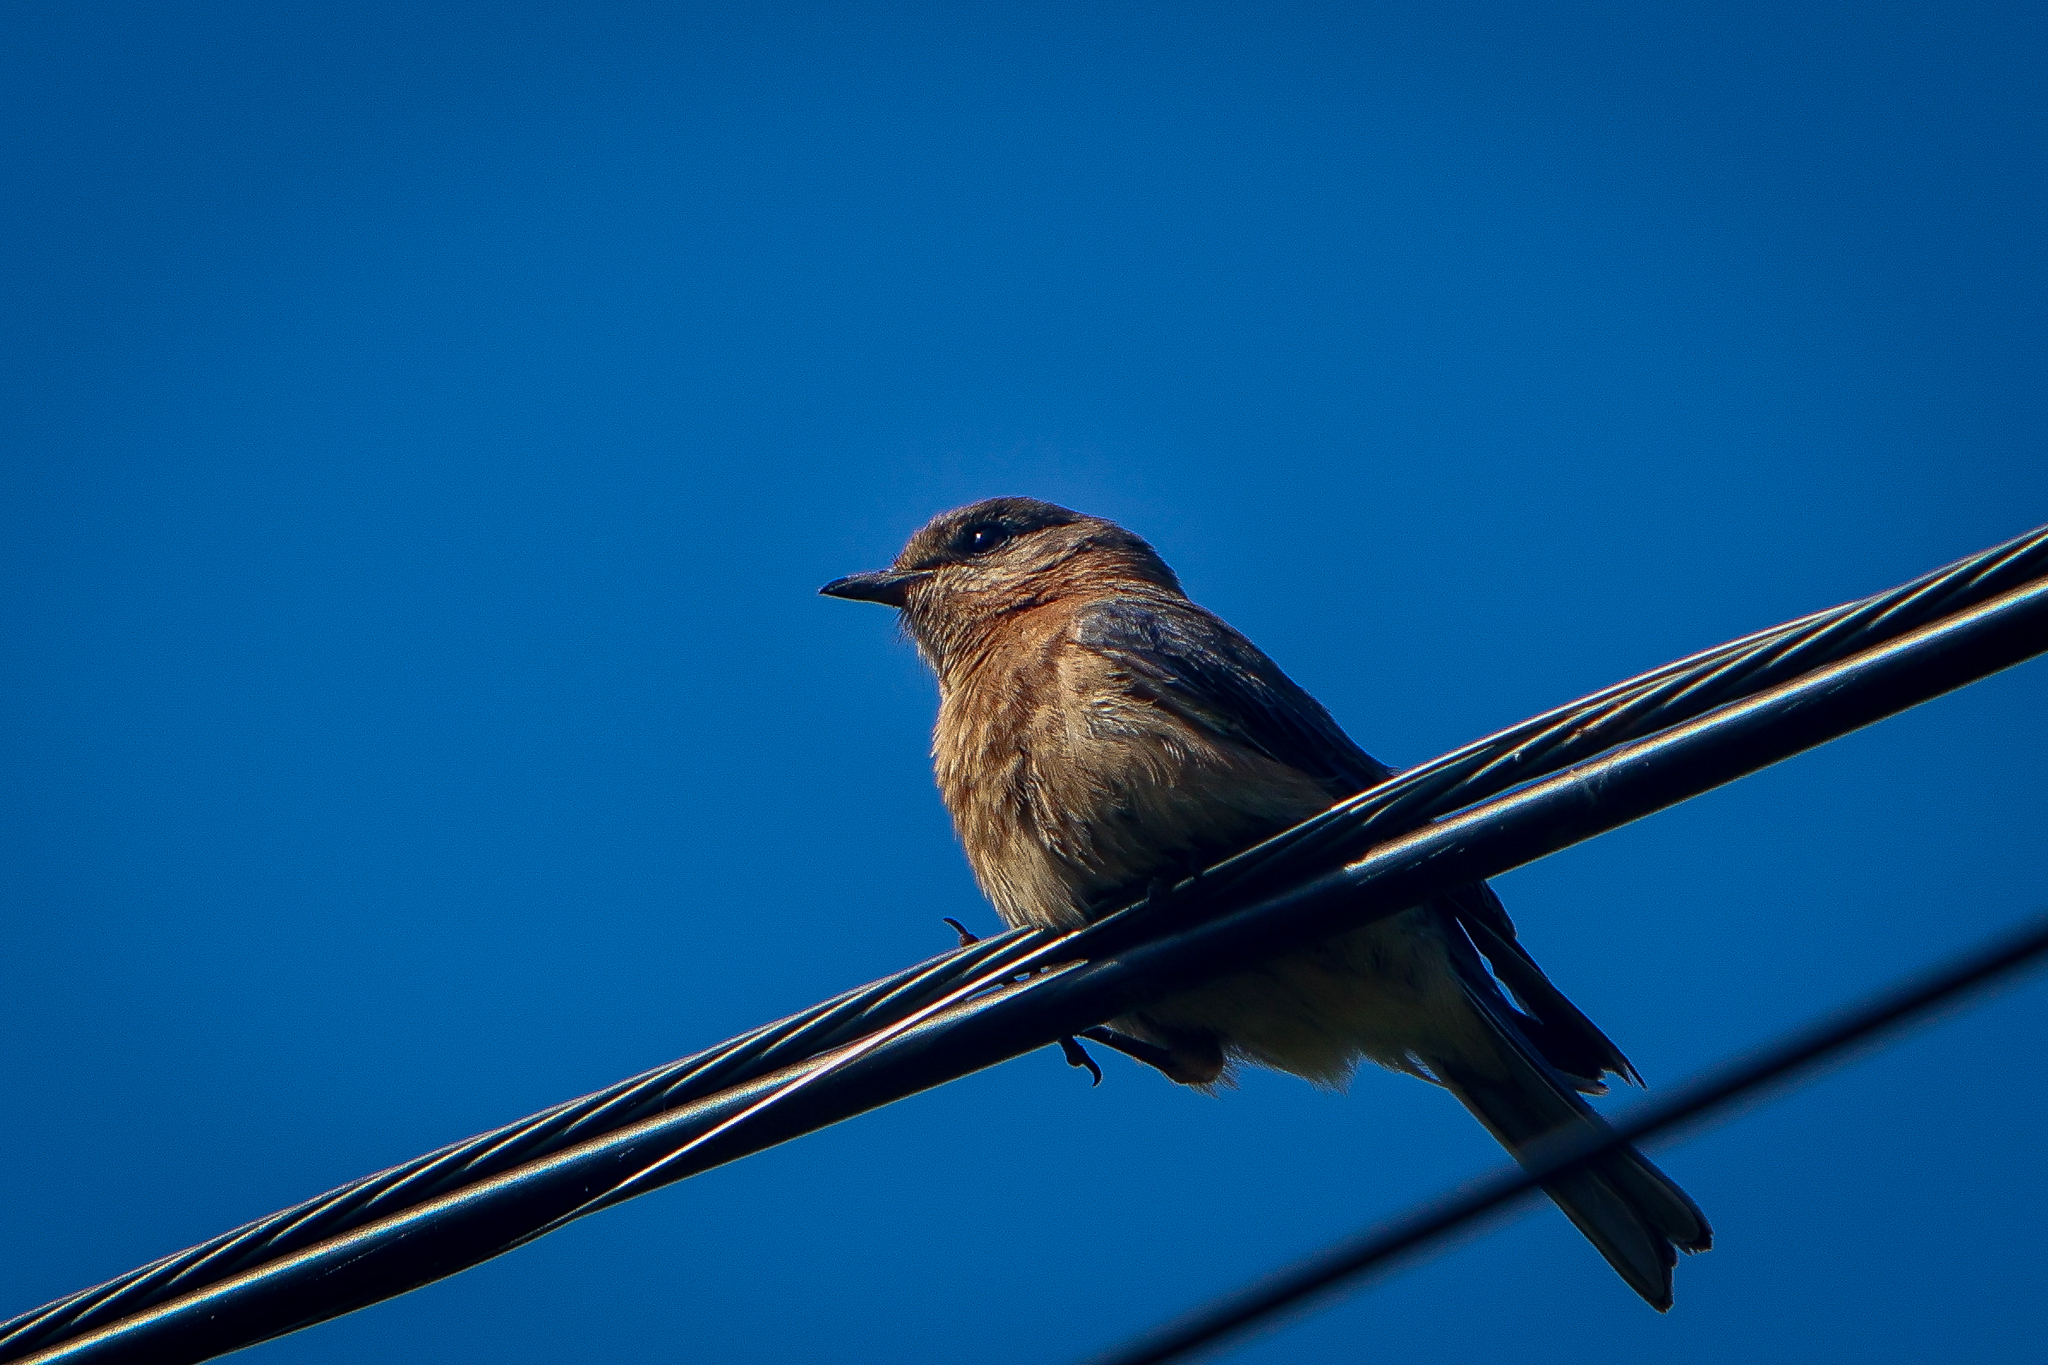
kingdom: Animalia
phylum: Chordata
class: Aves
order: Passeriformes
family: Turdidae
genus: Sialia
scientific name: Sialia sialis
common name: Eastern bluebird
